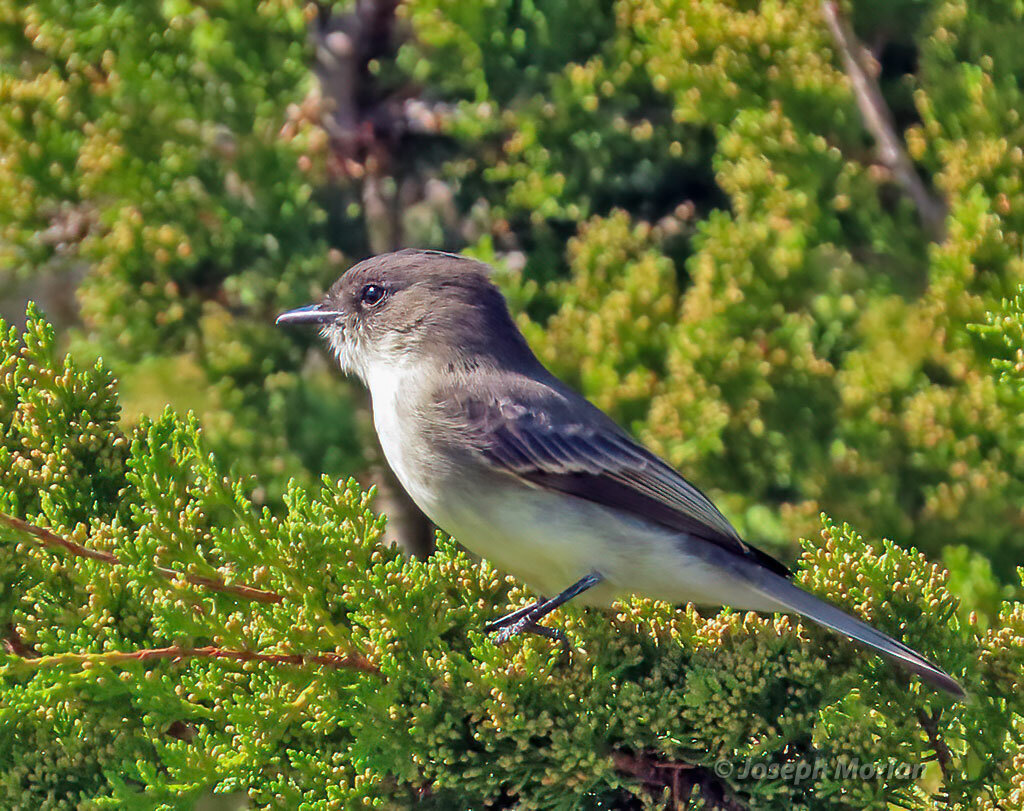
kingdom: Animalia
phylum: Chordata
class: Aves
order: Passeriformes
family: Tyrannidae
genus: Sayornis
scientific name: Sayornis phoebe
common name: Eastern phoebe
